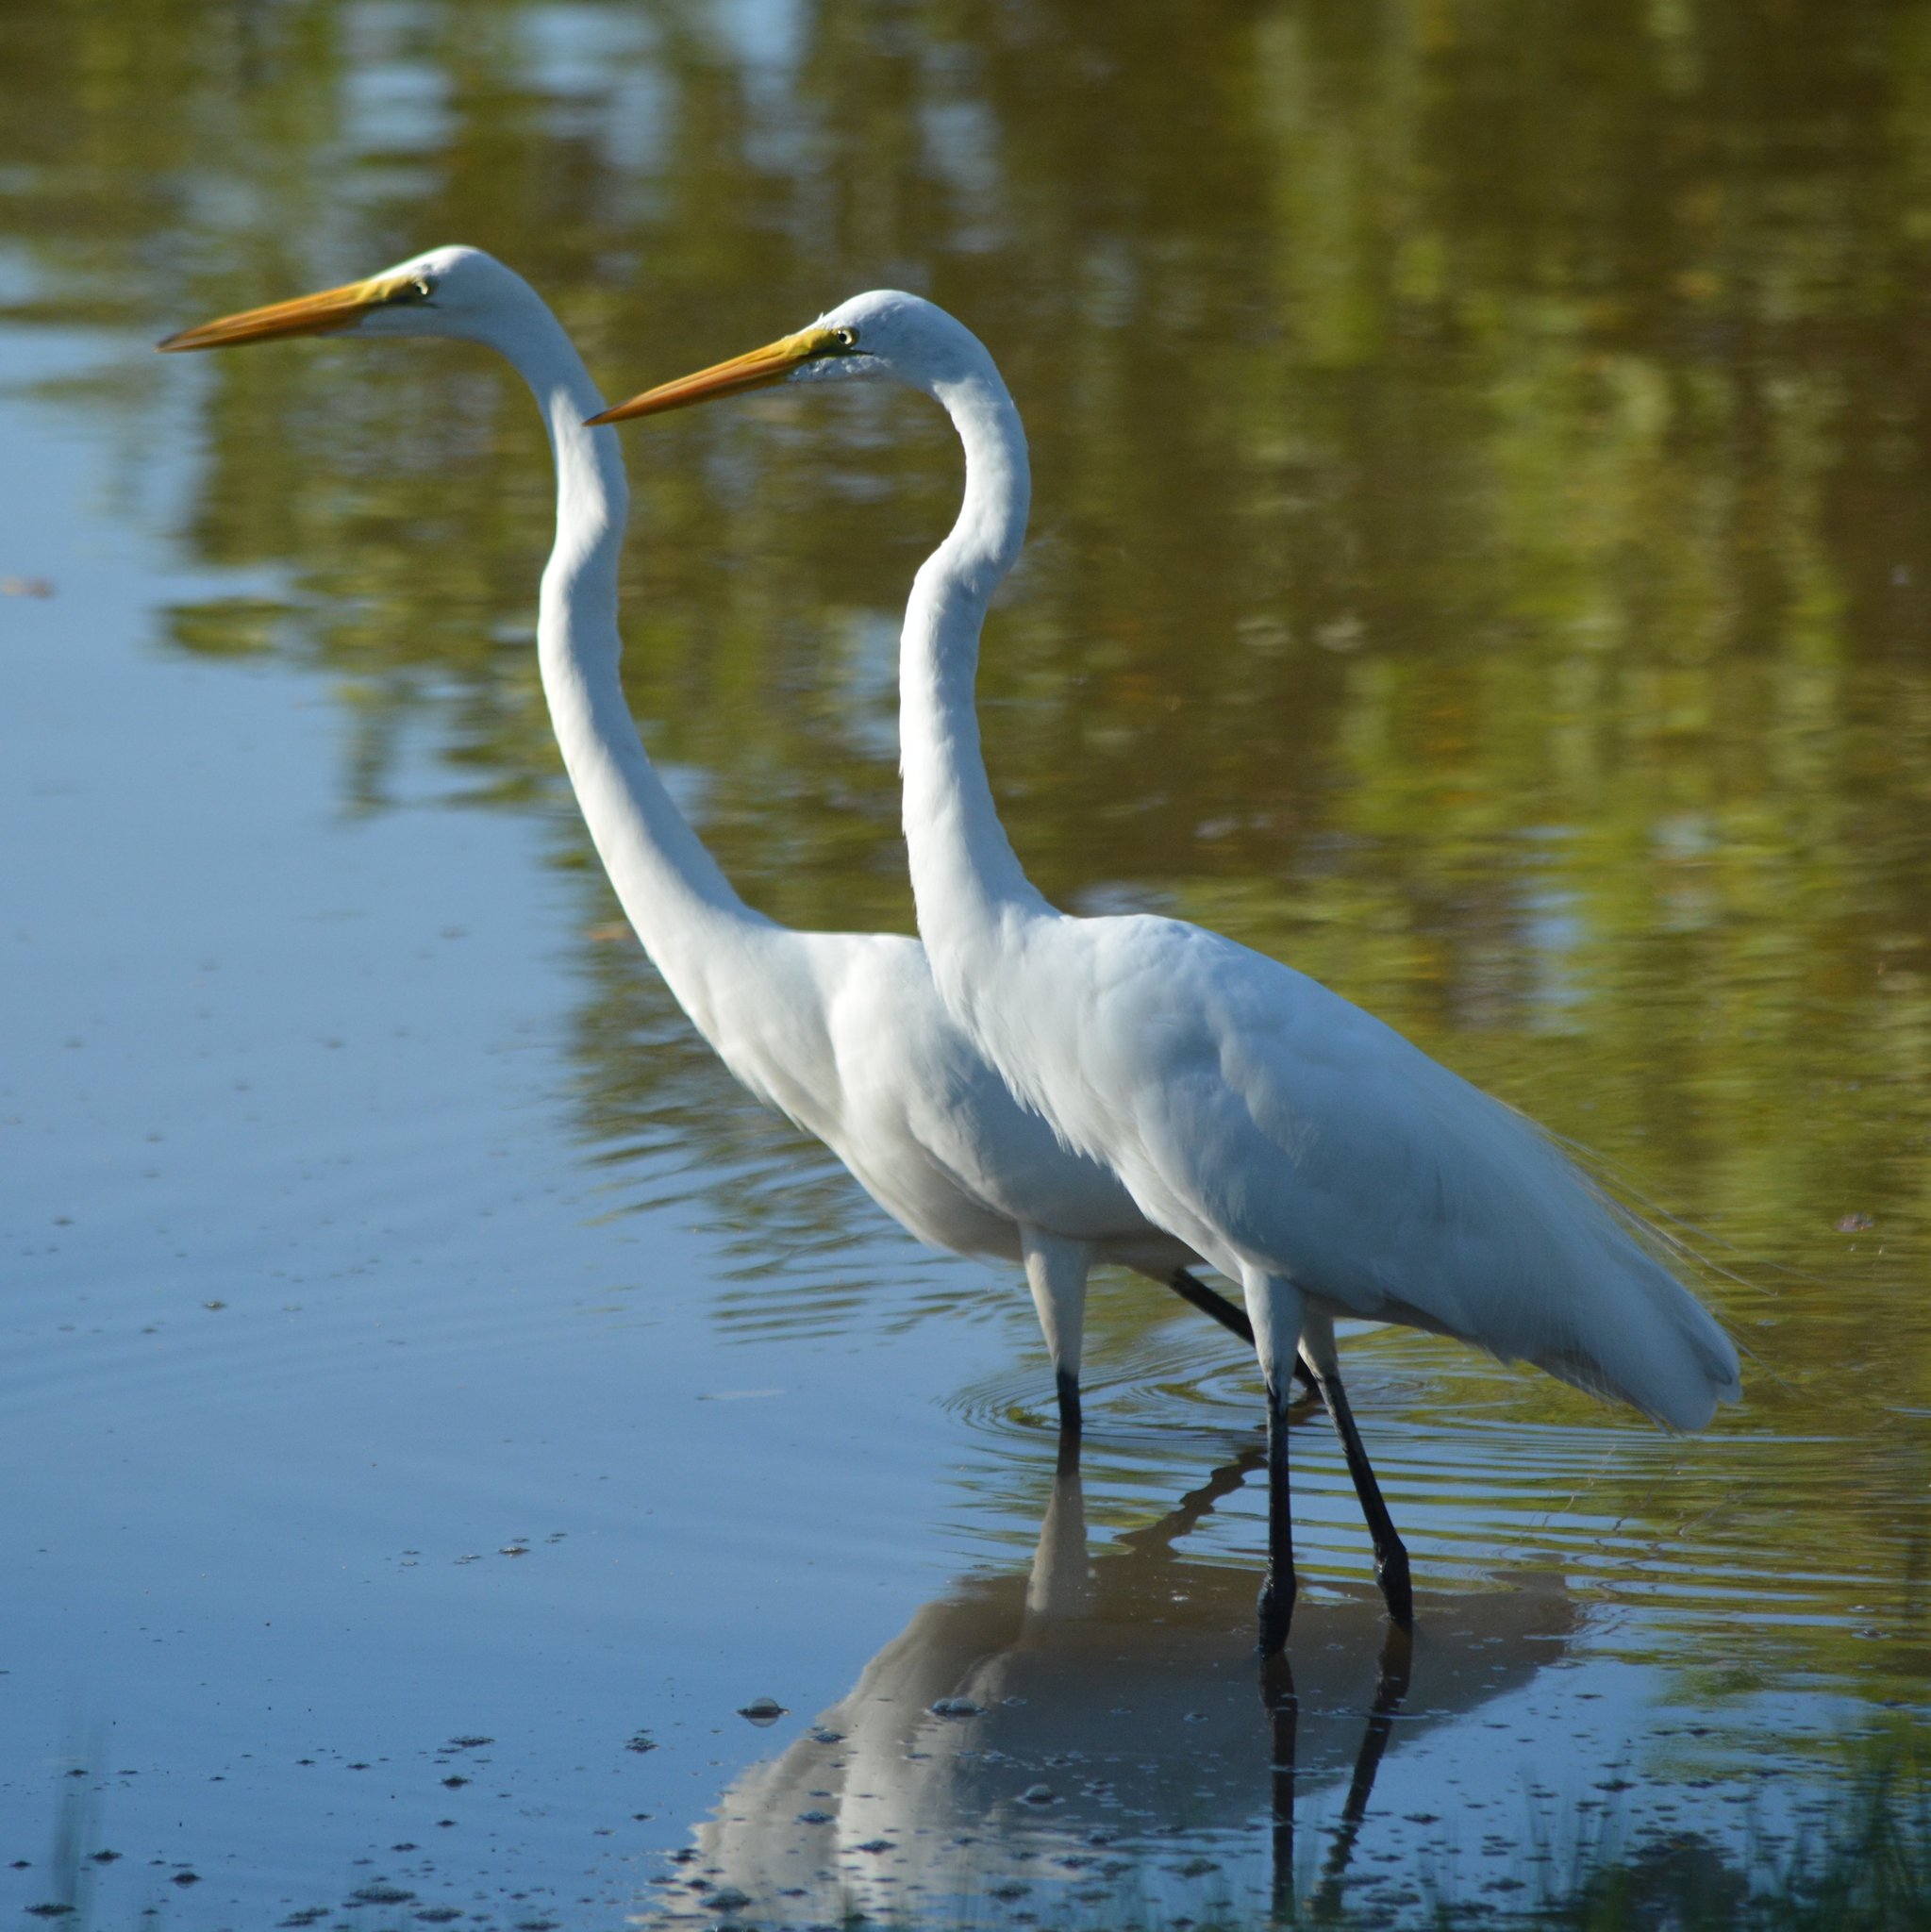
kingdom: Animalia
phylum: Chordata
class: Aves
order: Pelecaniformes
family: Ardeidae
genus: Ardea
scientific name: Ardea alba
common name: Great egret
